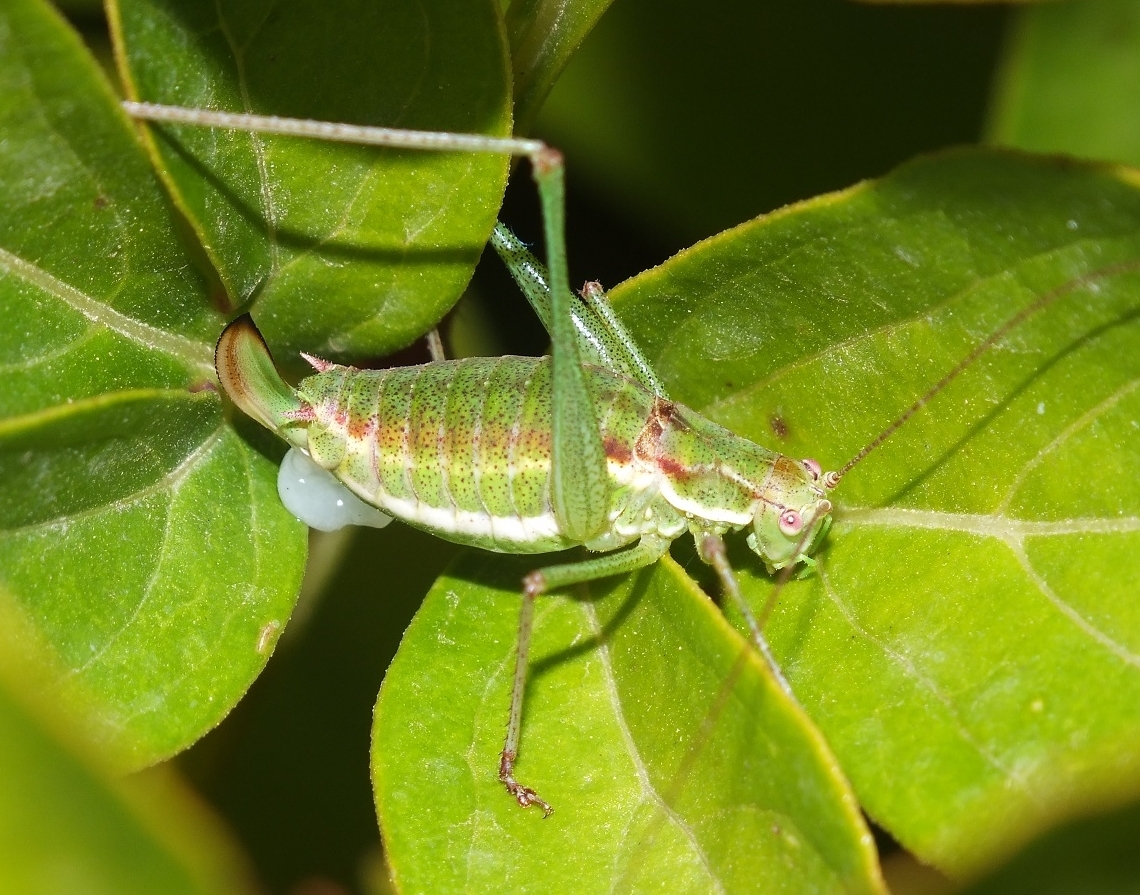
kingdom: Animalia
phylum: Arthropoda
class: Insecta
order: Orthoptera
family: Tettigoniidae
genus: Leptophyes
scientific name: Leptophyes albovittata
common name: Striped bush-cricket
